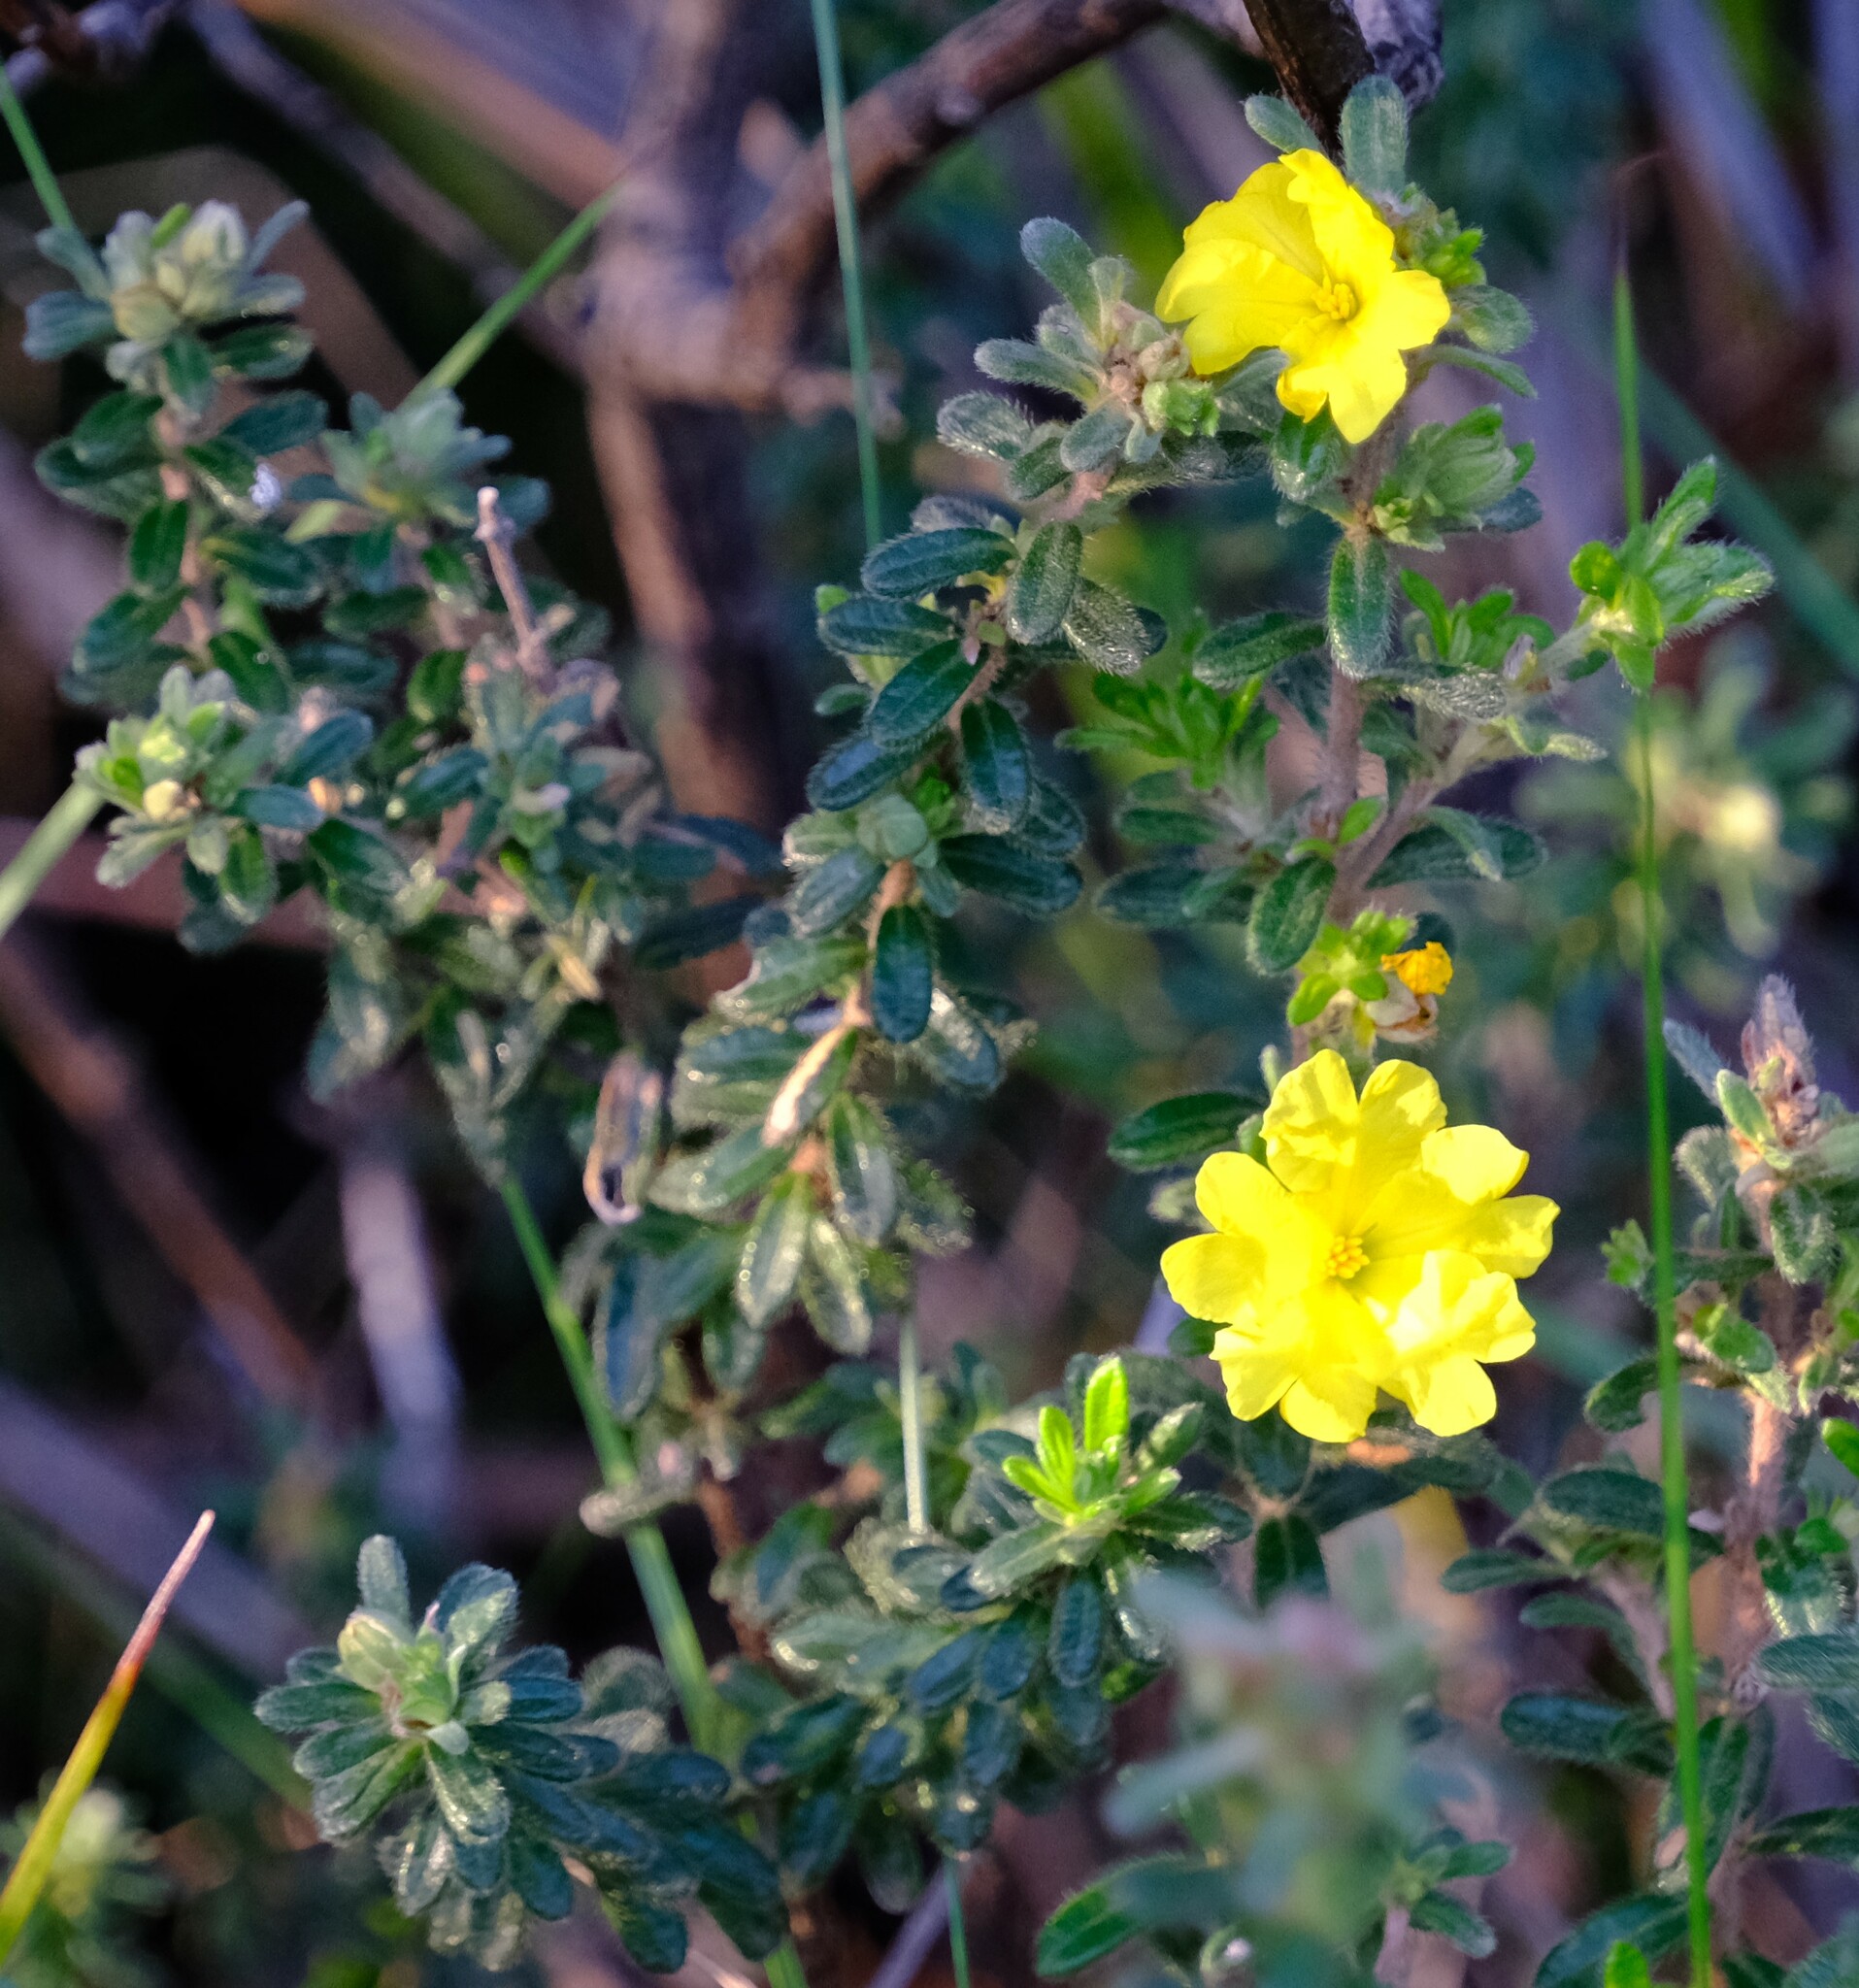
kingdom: Plantae
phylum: Tracheophyta
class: Magnoliopsida
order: Dilleniales
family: Dilleniaceae
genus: Hibbertia
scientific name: Hibbertia sericea
